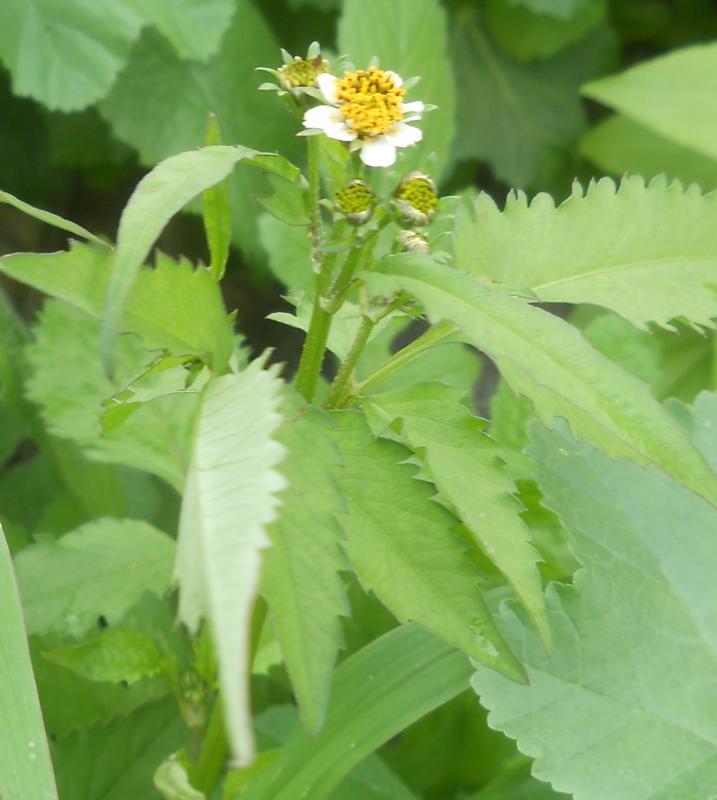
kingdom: Plantae
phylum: Tracheophyta
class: Magnoliopsida
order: Asterales
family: Asteraceae
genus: Bidens
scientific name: Bidens pilosa
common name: Black-jack
